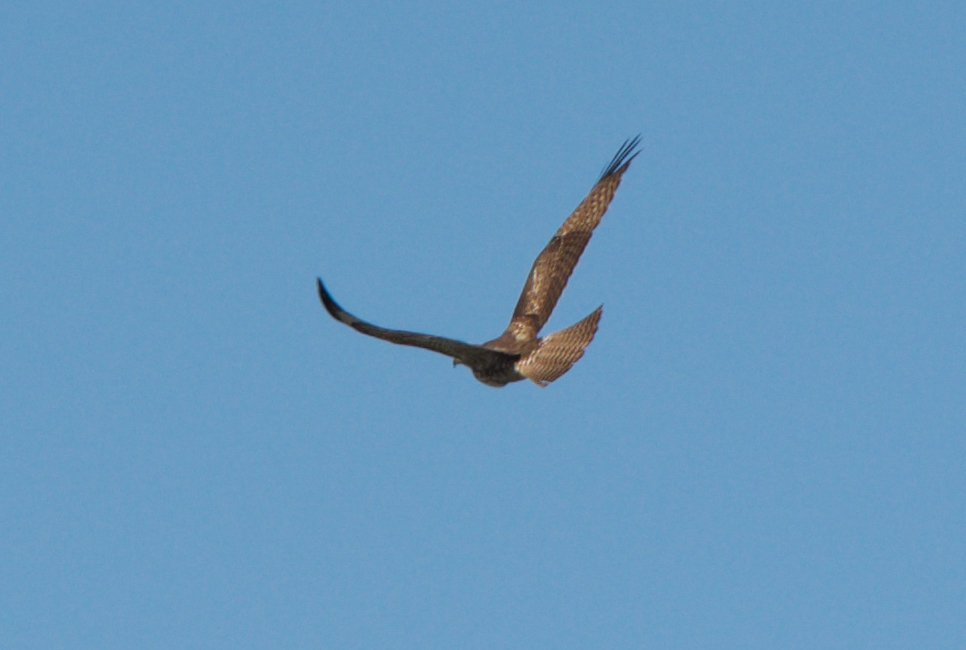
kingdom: Animalia
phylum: Chordata
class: Aves
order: Accipitriformes
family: Accipitridae
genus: Buteo
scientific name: Buteo jamaicensis
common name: Red-tailed hawk
